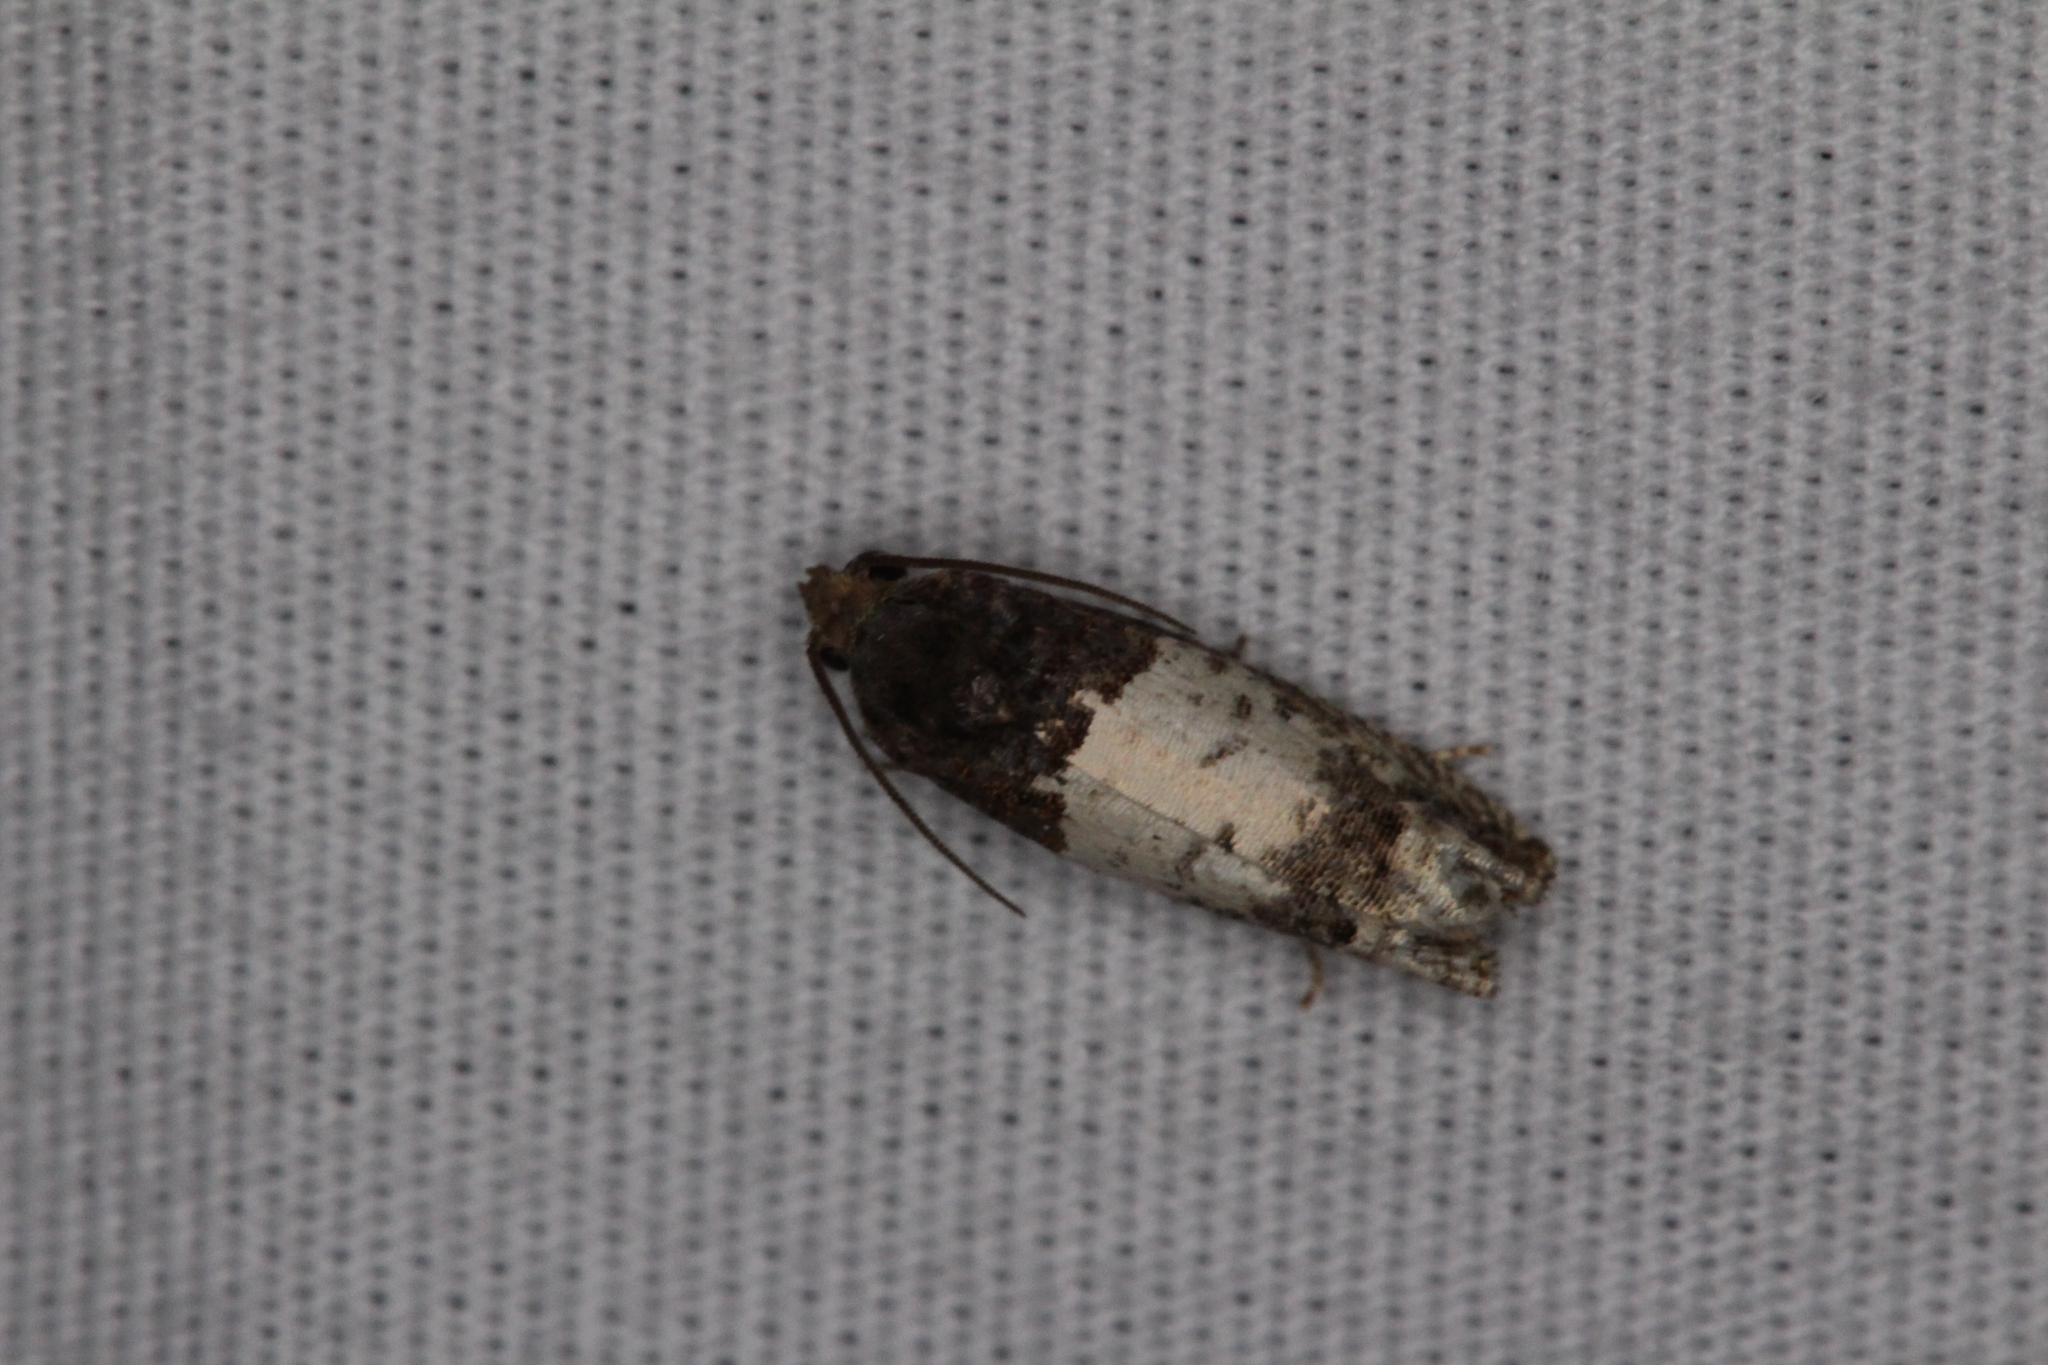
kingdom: Animalia
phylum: Arthropoda
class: Insecta
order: Lepidoptera
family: Tortricidae
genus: Epiblema
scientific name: Epiblema scudderiana
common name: Goldenrod gall moth
